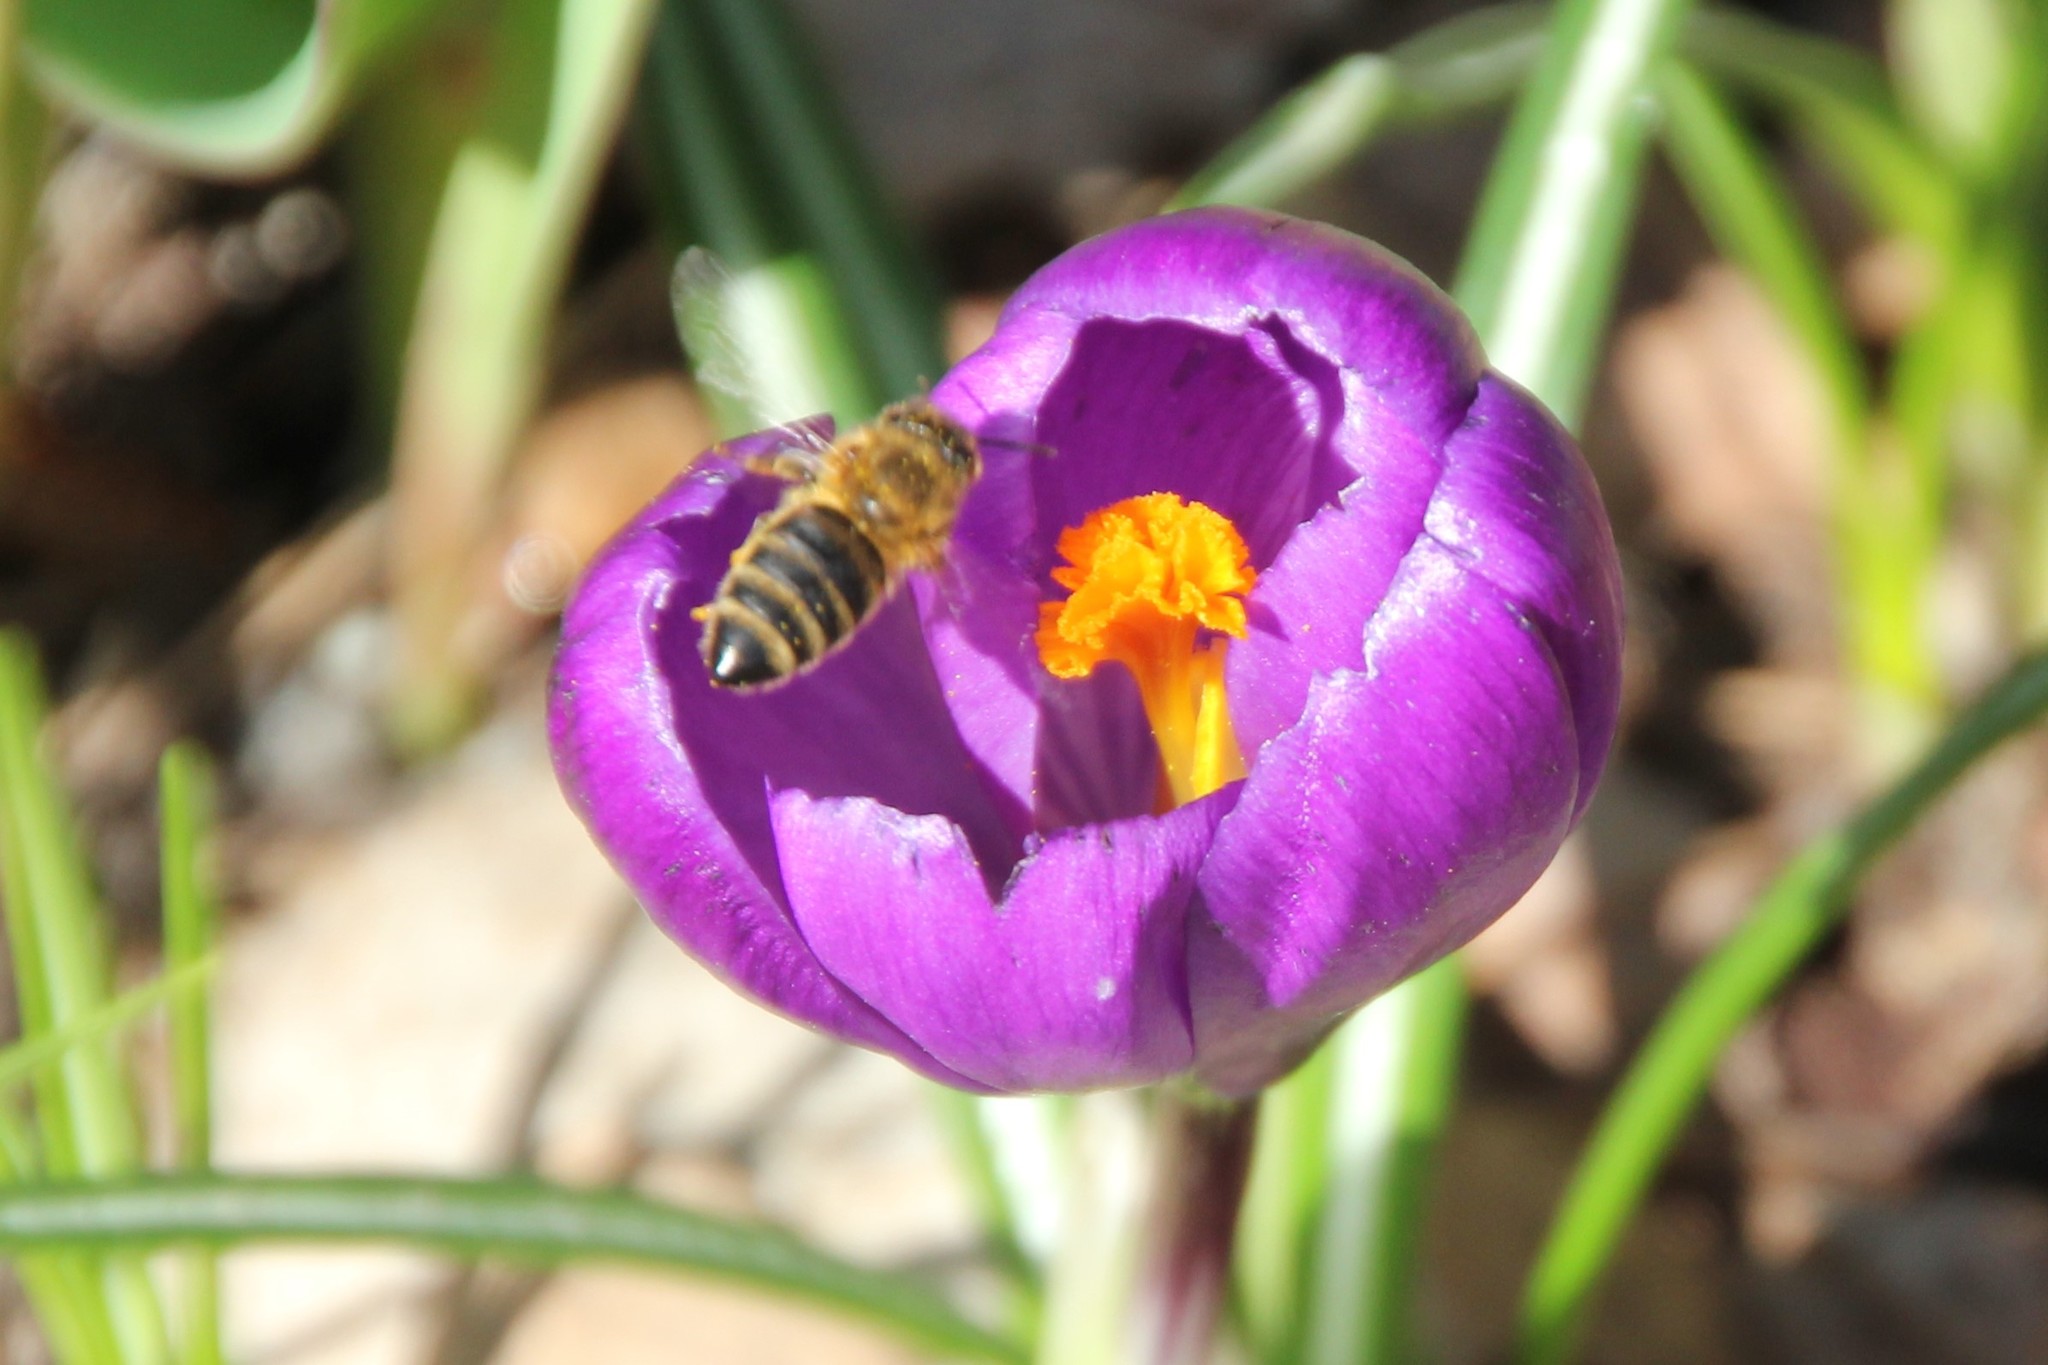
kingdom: Animalia
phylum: Arthropoda
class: Insecta
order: Hymenoptera
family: Apidae
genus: Apis
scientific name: Apis mellifera
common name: Honey bee
